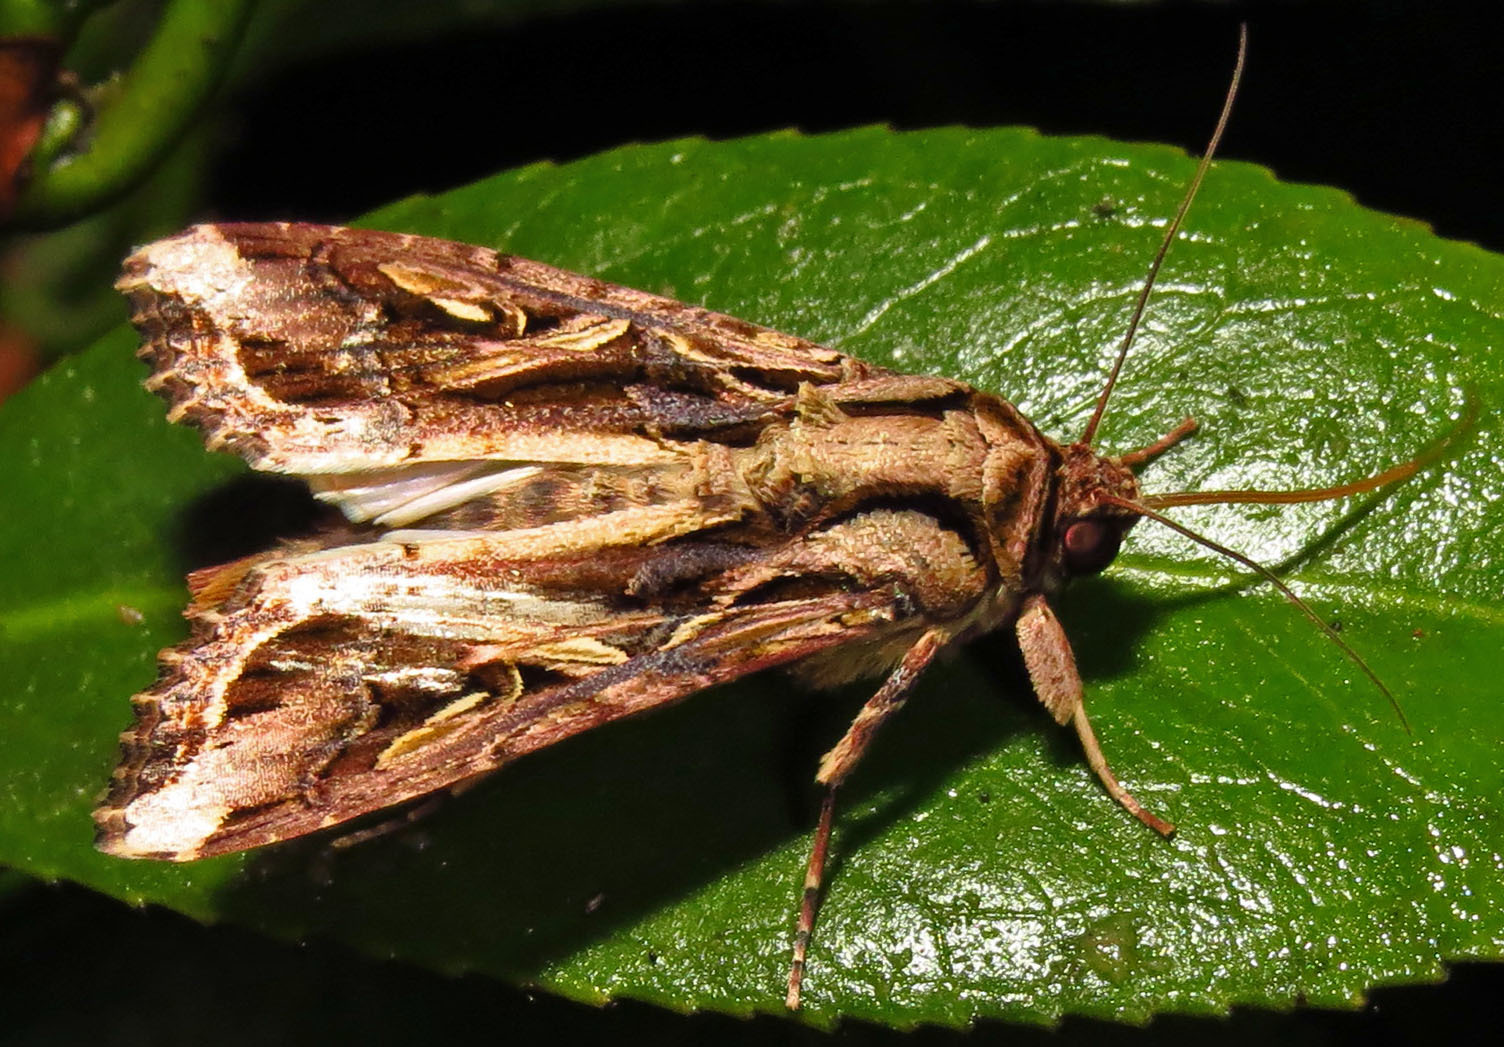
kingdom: Animalia
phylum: Arthropoda
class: Insecta
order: Lepidoptera
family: Noctuidae
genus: Spodoptera
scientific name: Spodoptera dolichos
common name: Sweetpotato armyworm
